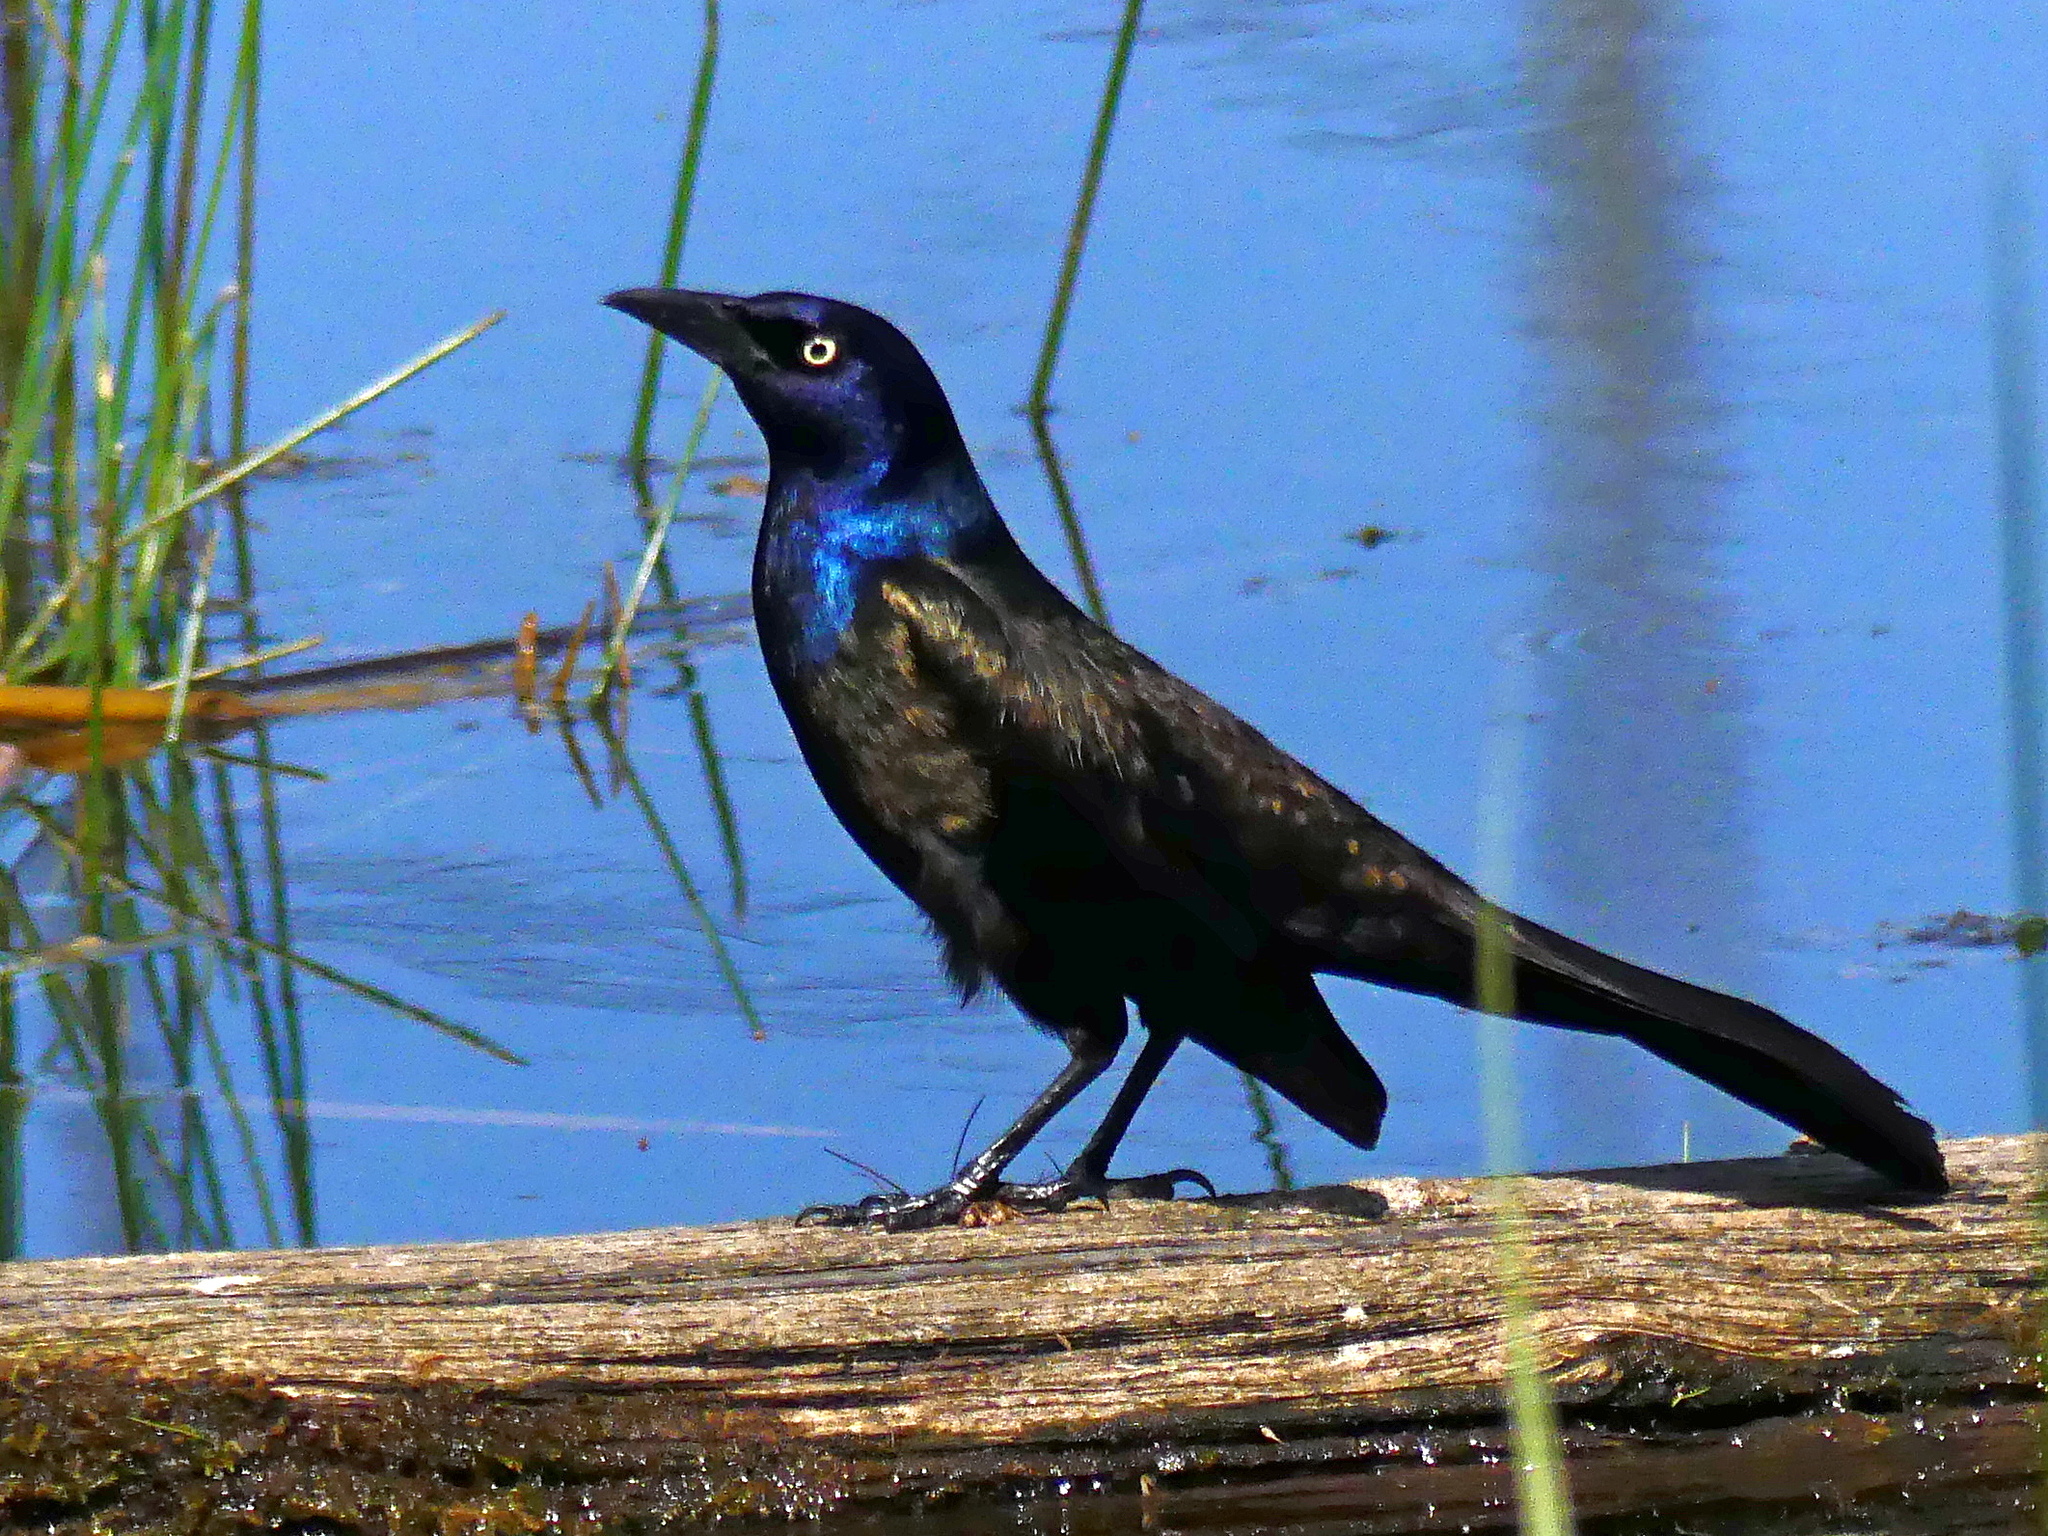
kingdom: Animalia
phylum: Chordata
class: Aves
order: Passeriformes
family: Icteridae
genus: Quiscalus
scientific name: Quiscalus quiscula
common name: Common grackle
